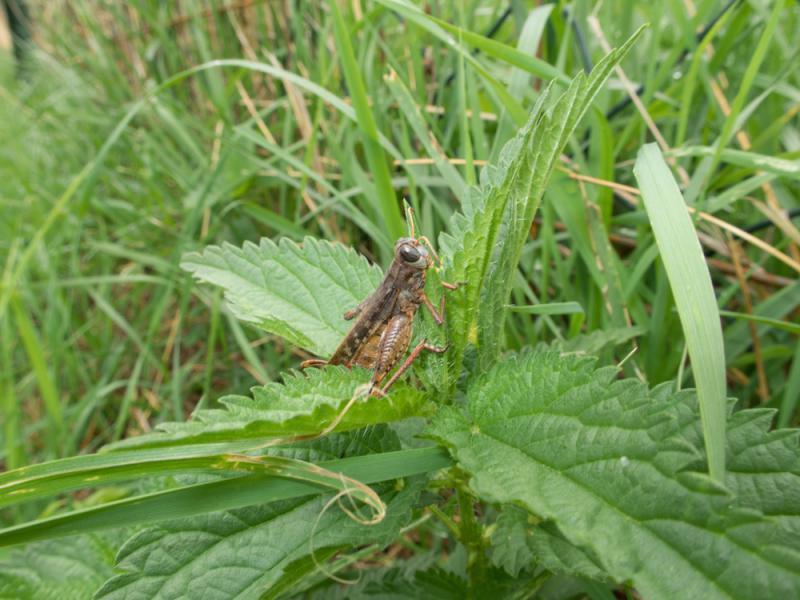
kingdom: Animalia
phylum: Arthropoda
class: Insecta
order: Orthoptera
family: Acrididae
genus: Calliptamus
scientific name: Calliptamus italicus
